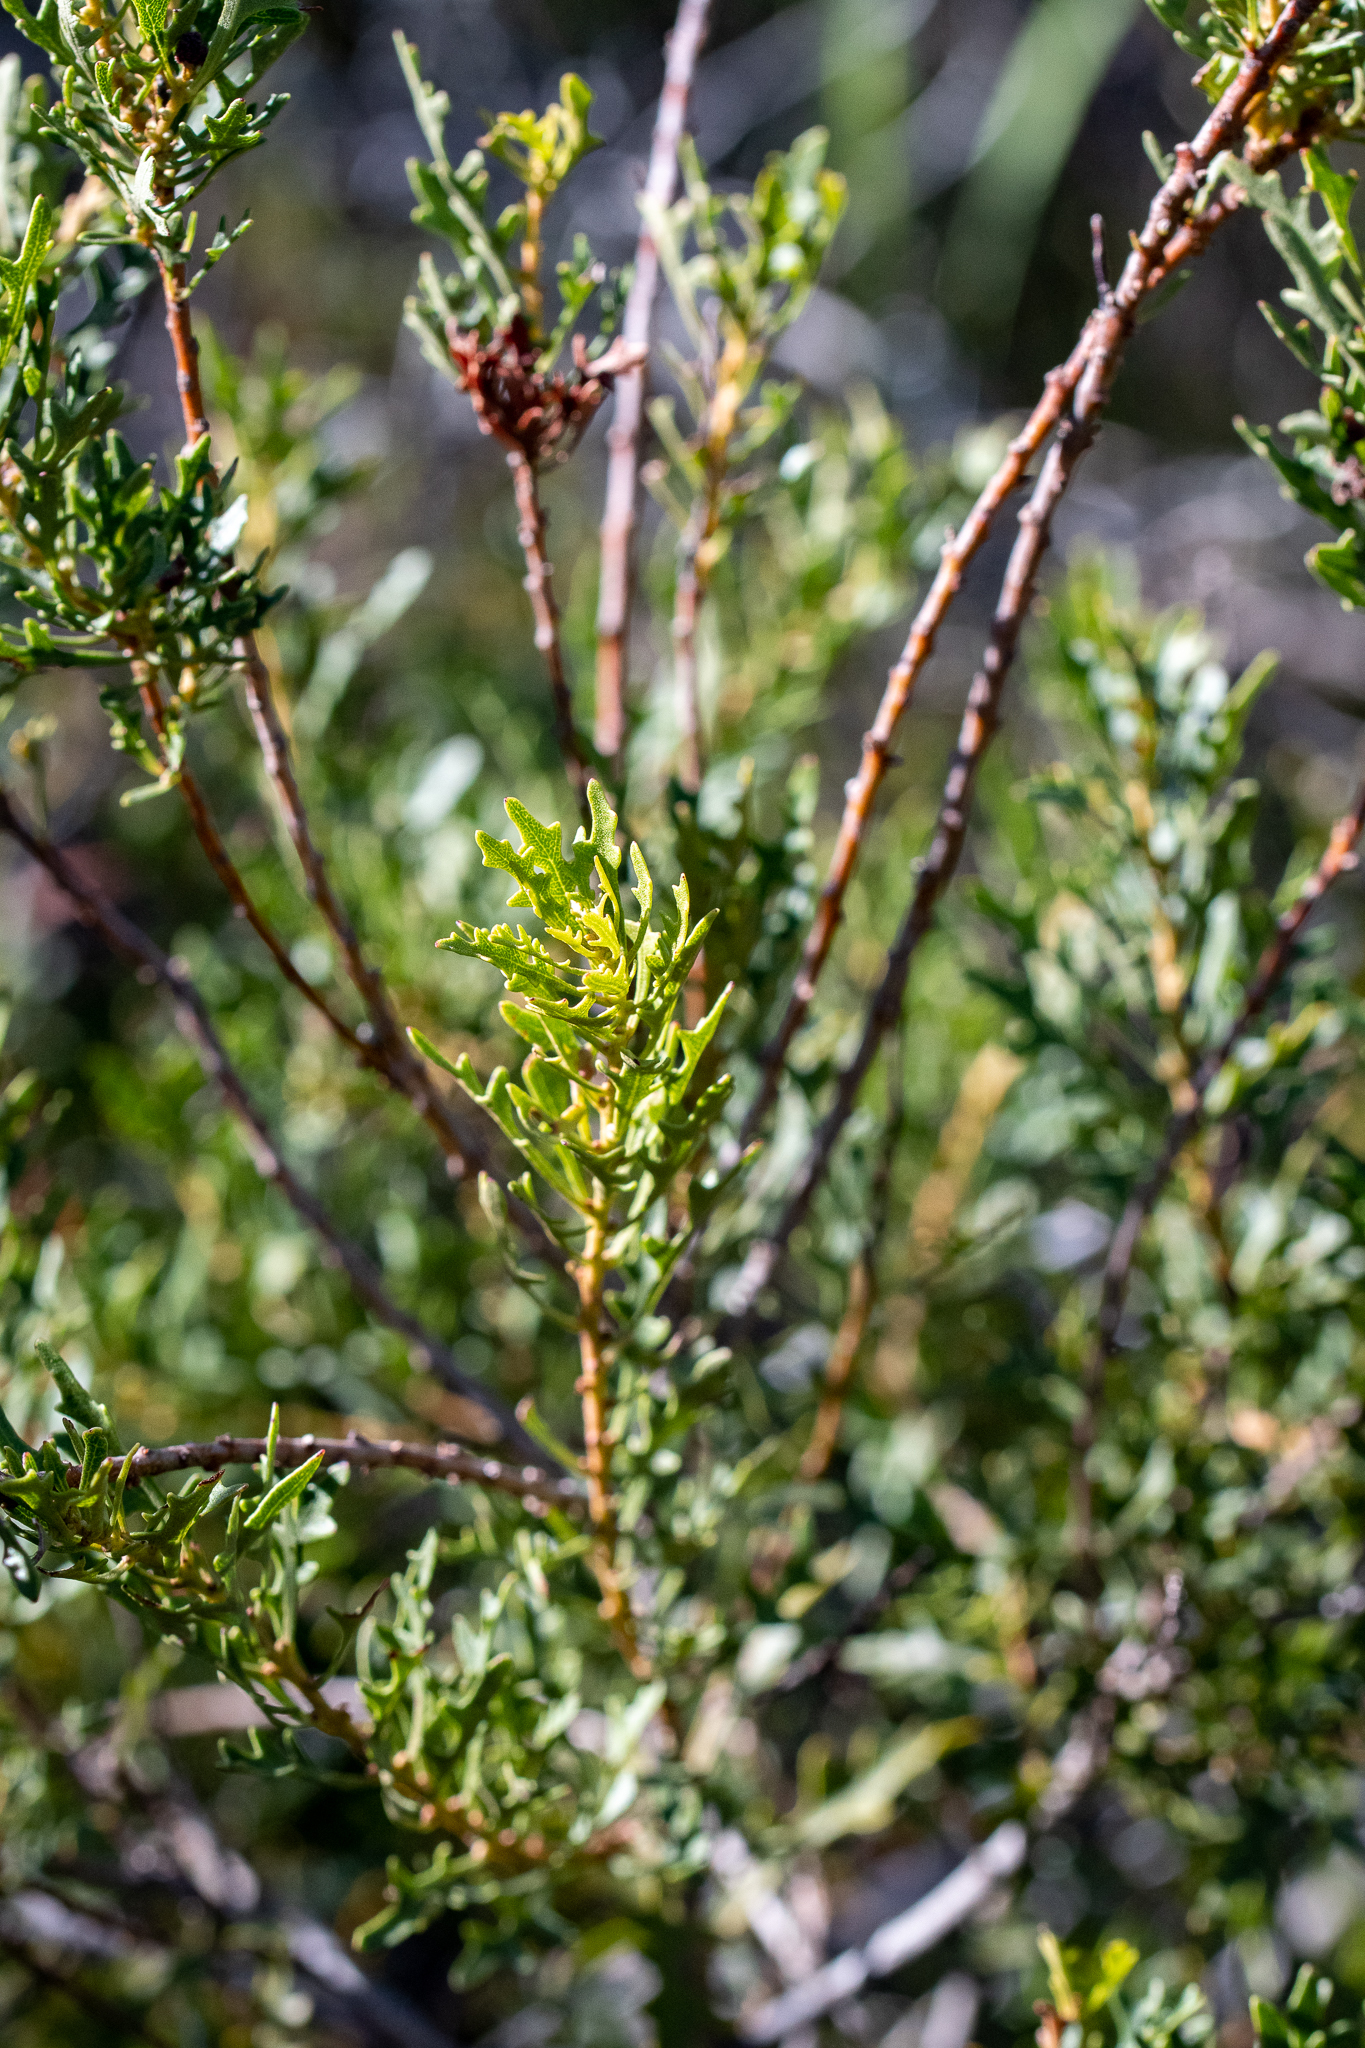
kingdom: Plantae
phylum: Tracheophyta
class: Magnoliopsida
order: Fagales
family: Myricaceae
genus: Morella
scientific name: Morella quercifolia
